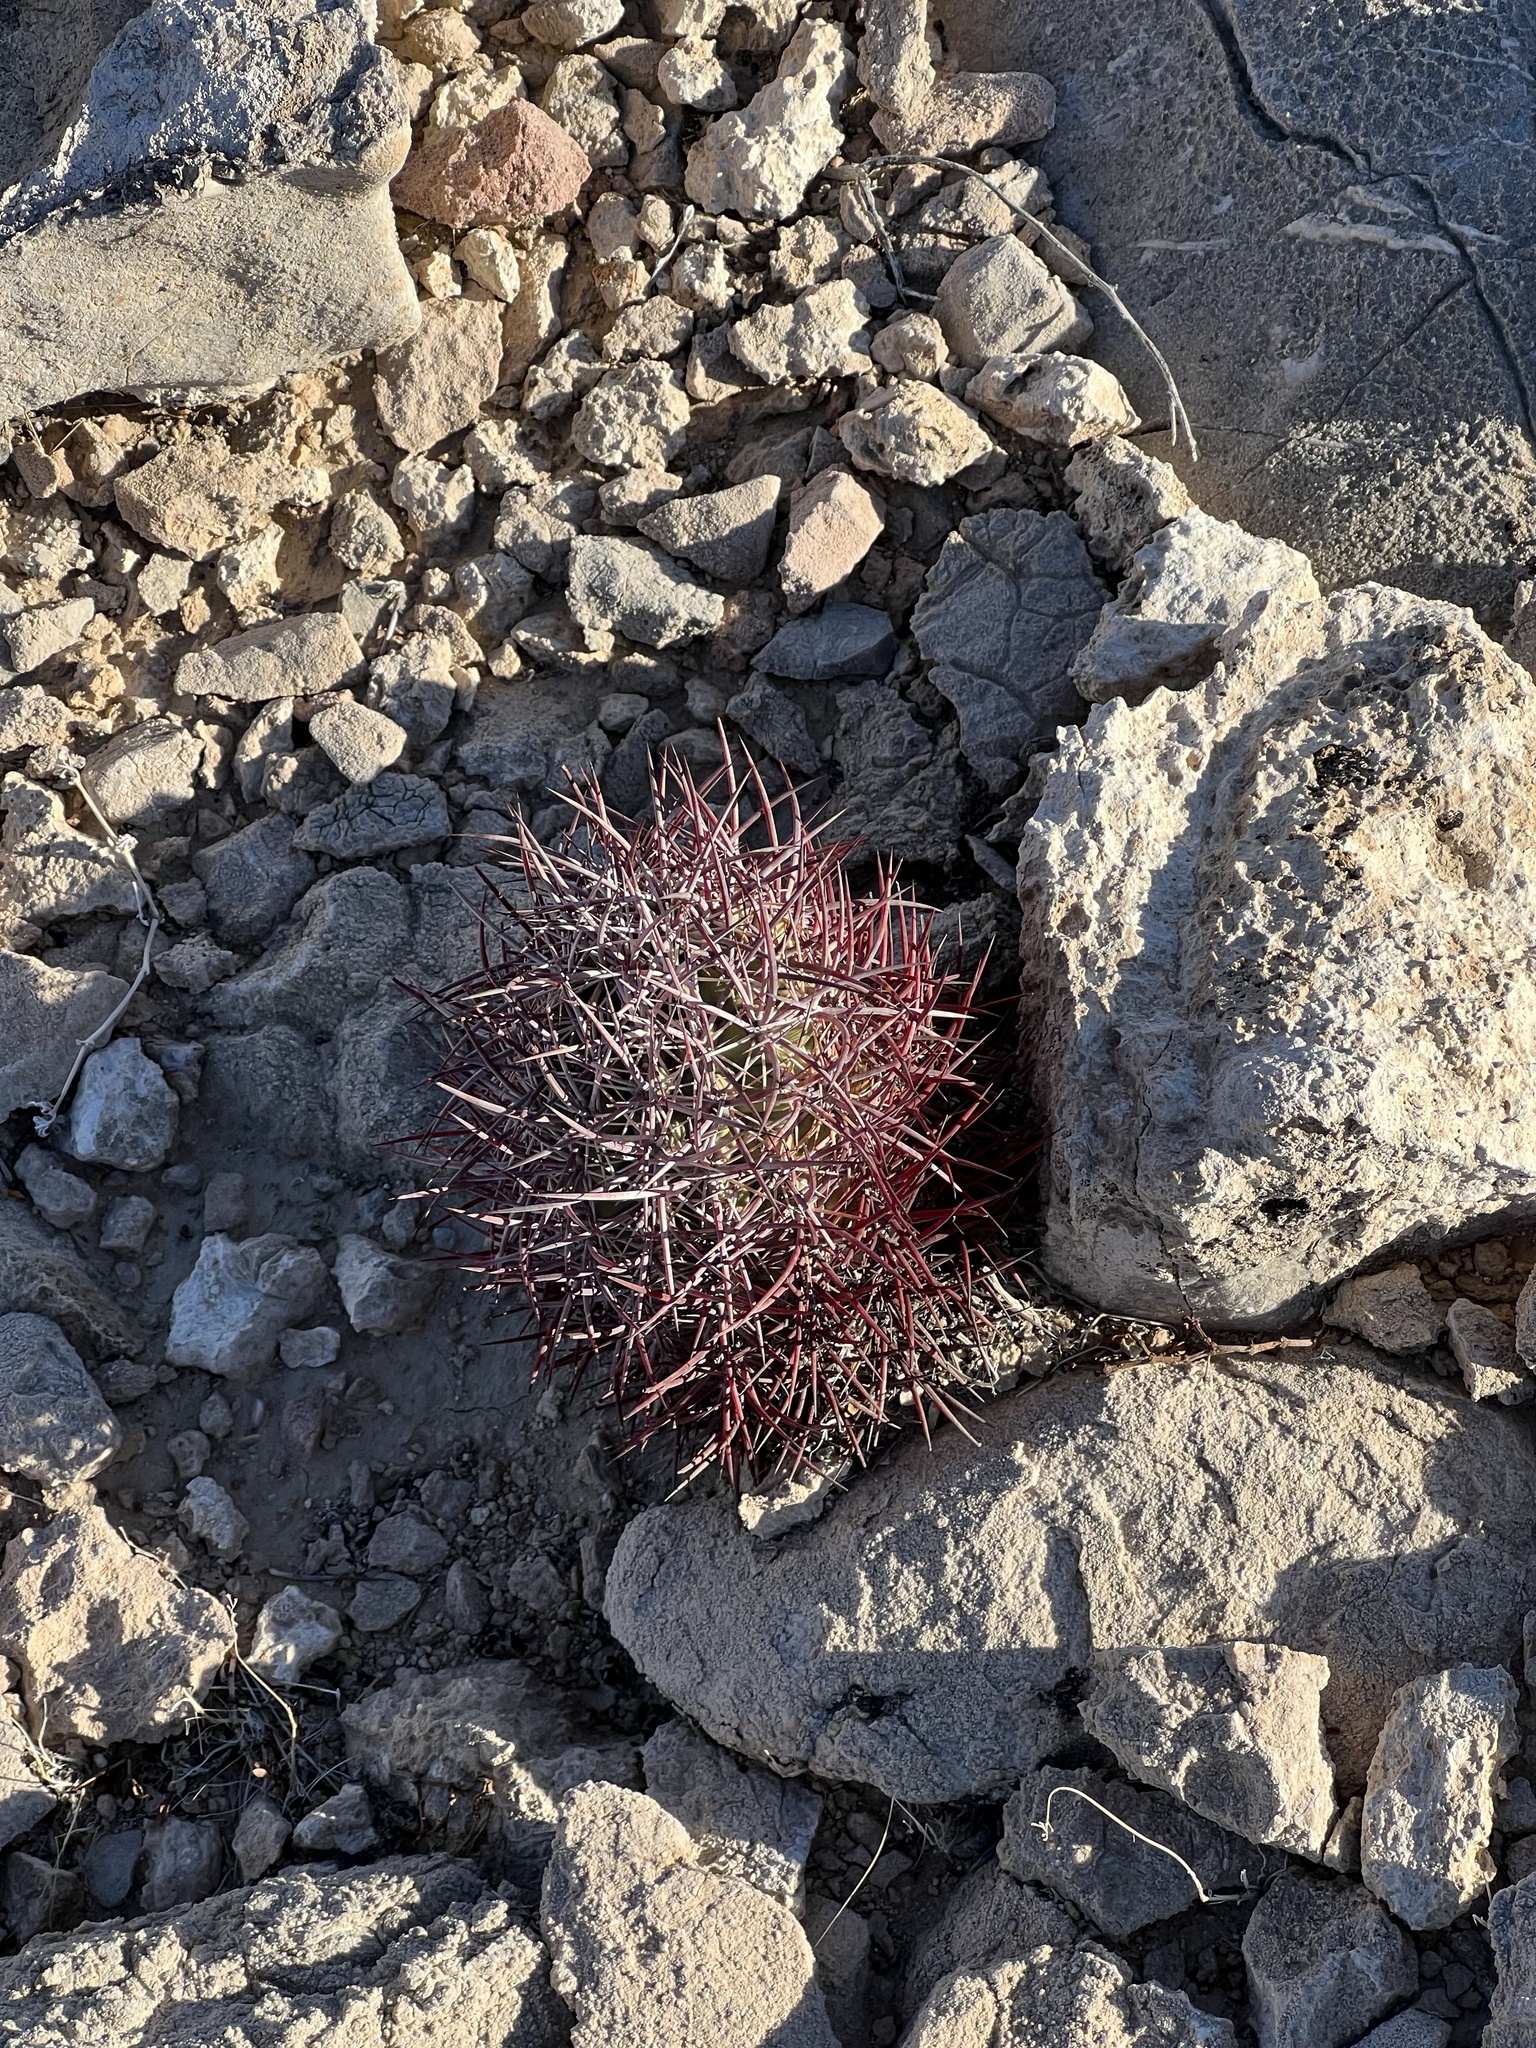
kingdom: Plantae
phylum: Tracheophyta
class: Magnoliopsida
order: Caryophyllales
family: Cactaceae
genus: Sclerocactus
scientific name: Sclerocactus johnsonii
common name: Eight-spine fishhook cactus
